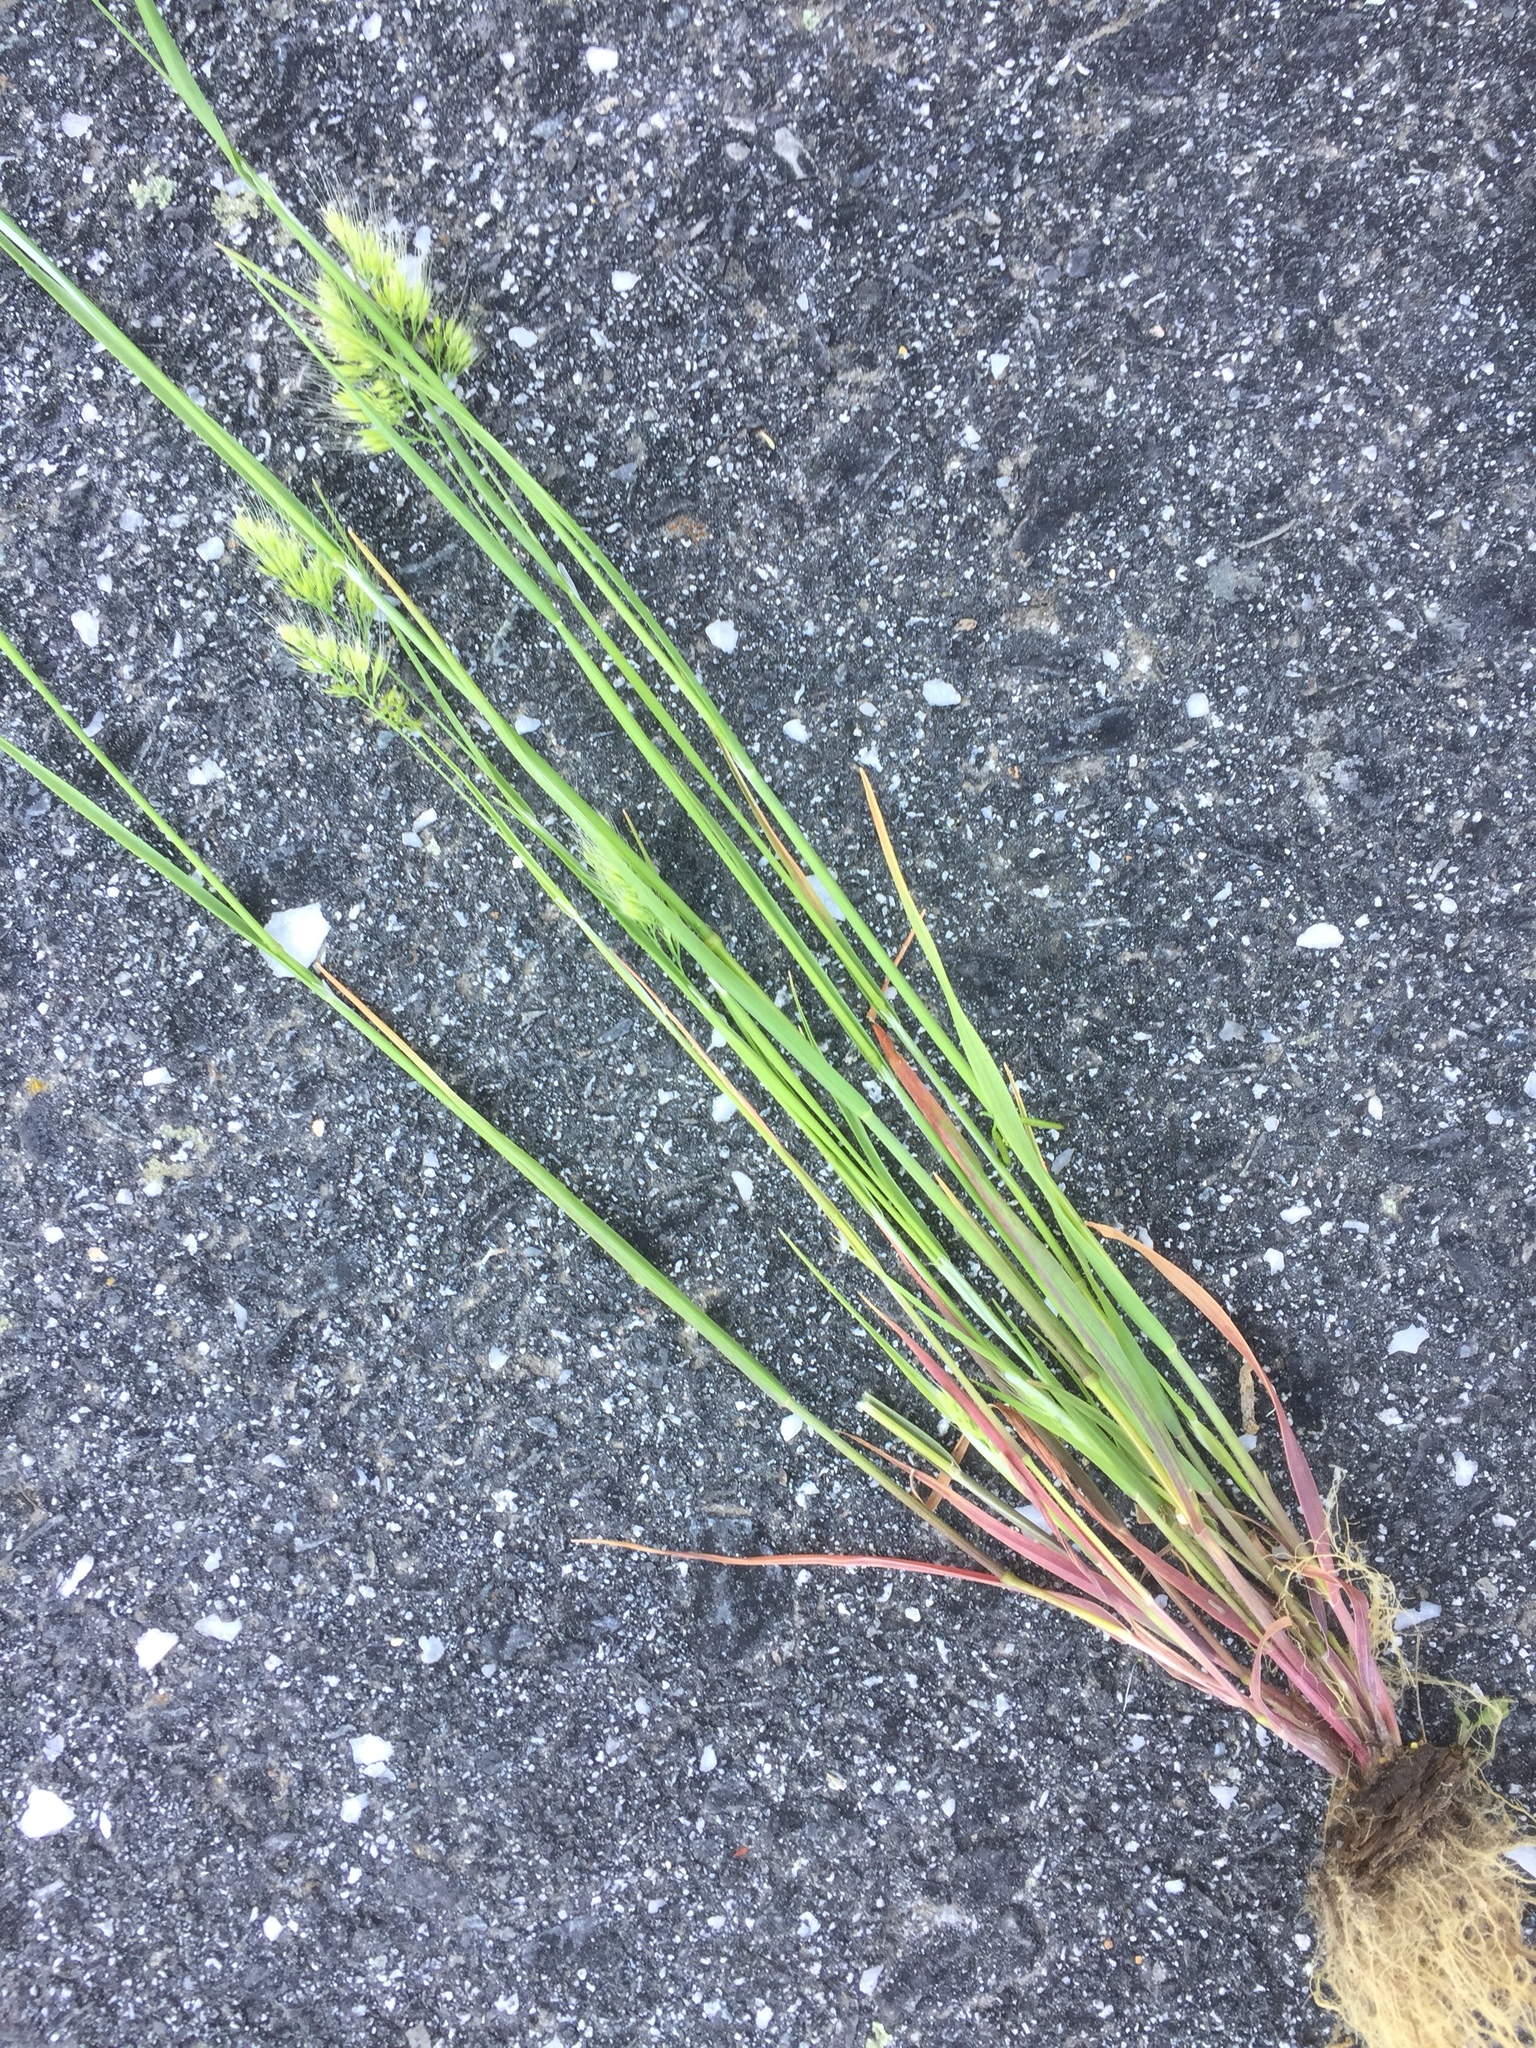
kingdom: Plantae
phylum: Tracheophyta
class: Liliopsida
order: Poales
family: Poaceae
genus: Cynosurus
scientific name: Cynosurus echinatus
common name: Rough dog's-tail
